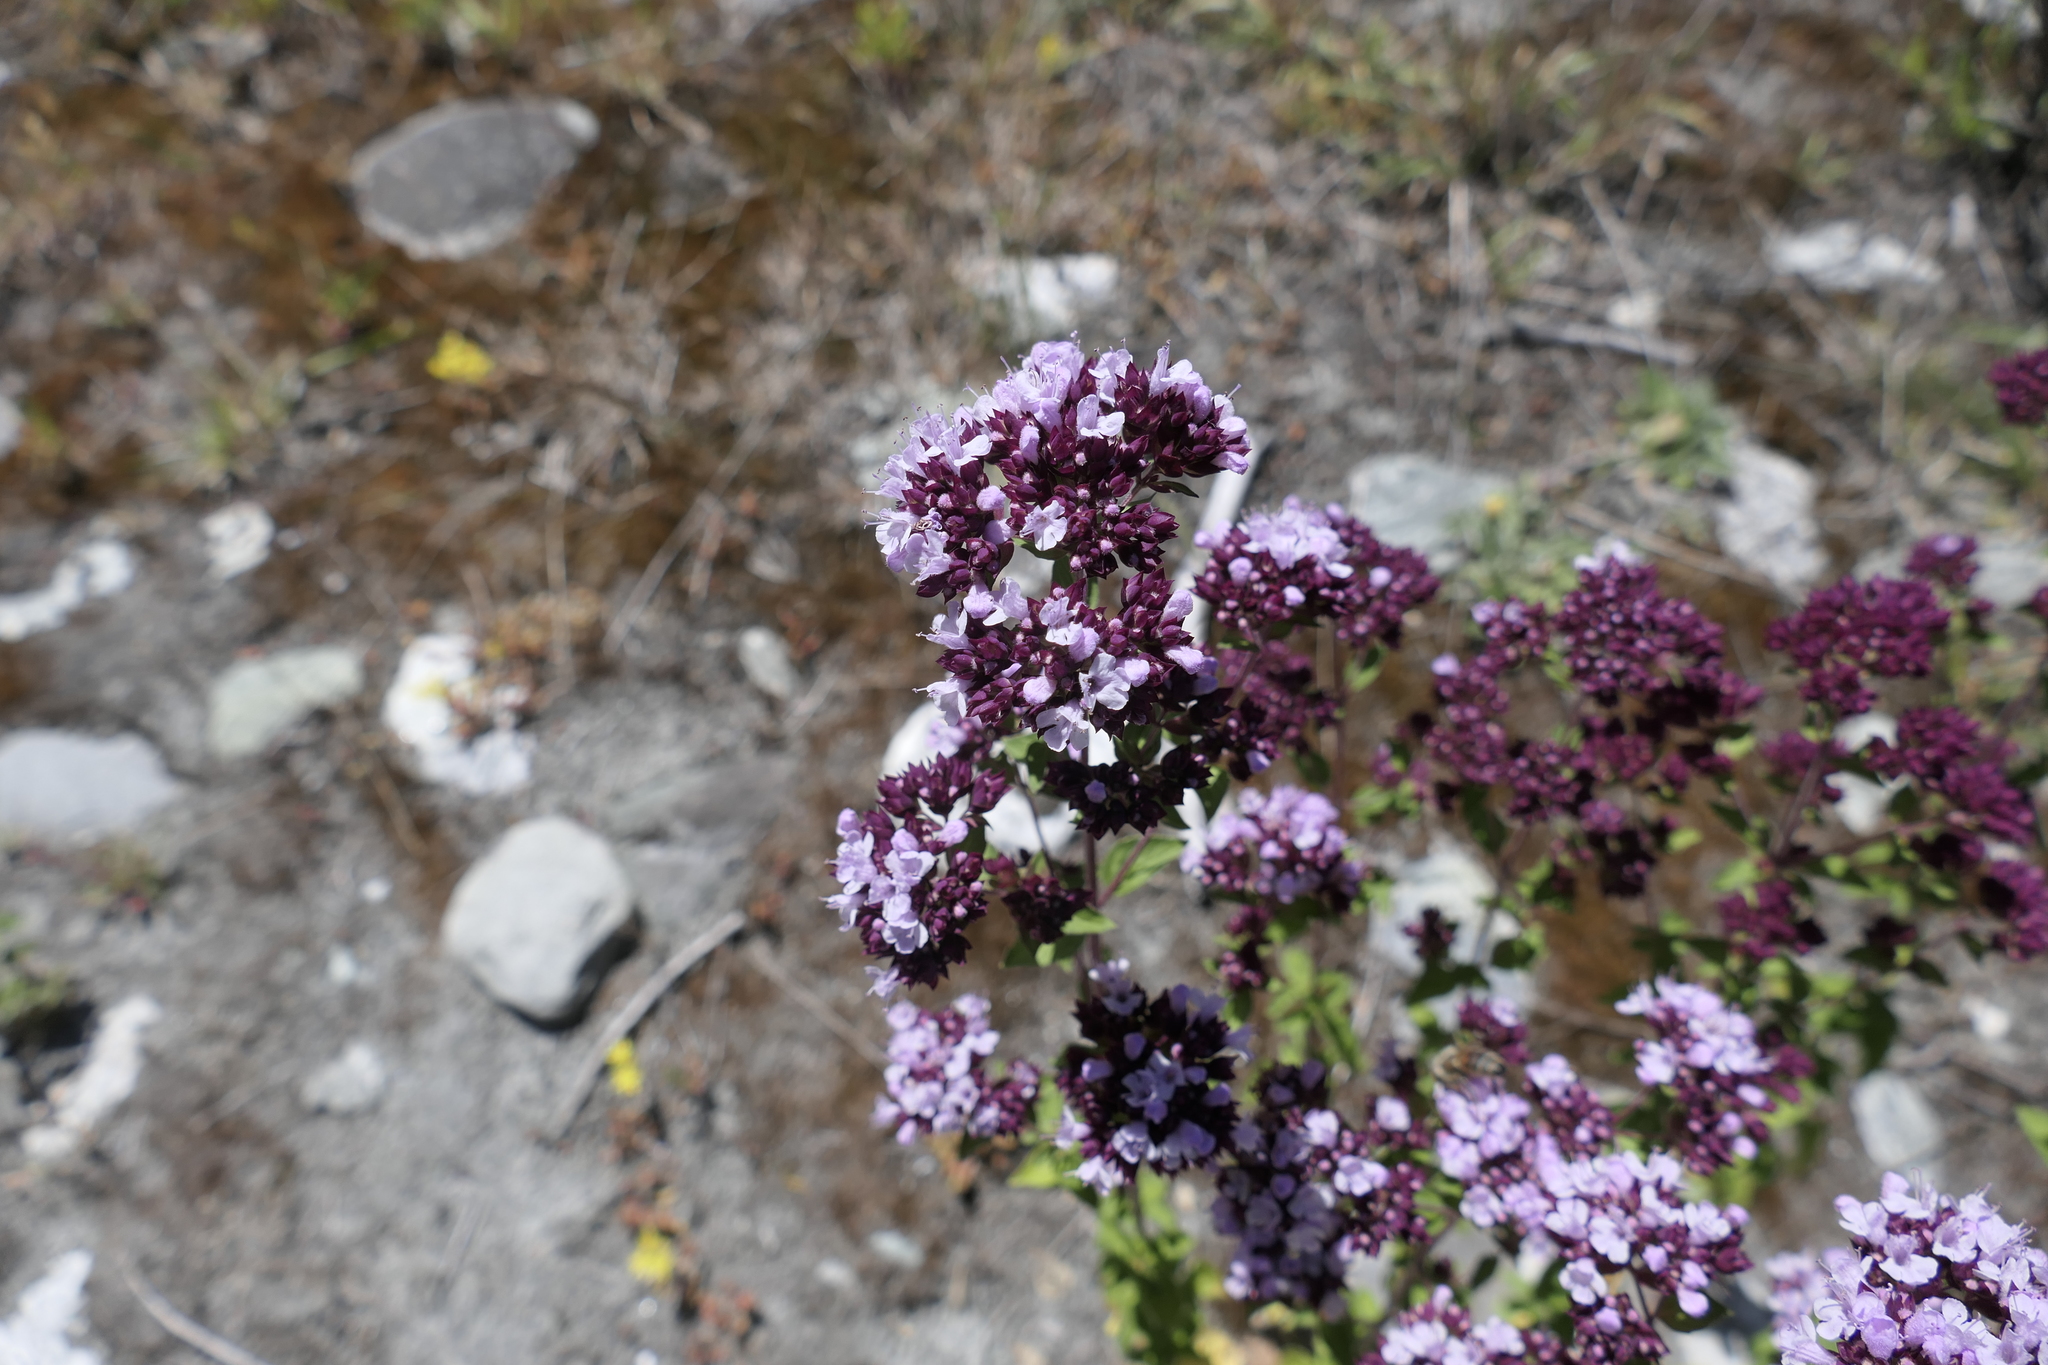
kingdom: Plantae
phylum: Tracheophyta
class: Magnoliopsida
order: Lamiales
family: Lamiaceae
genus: Origanum
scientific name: Origanum vulgare
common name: Wild marjoram
